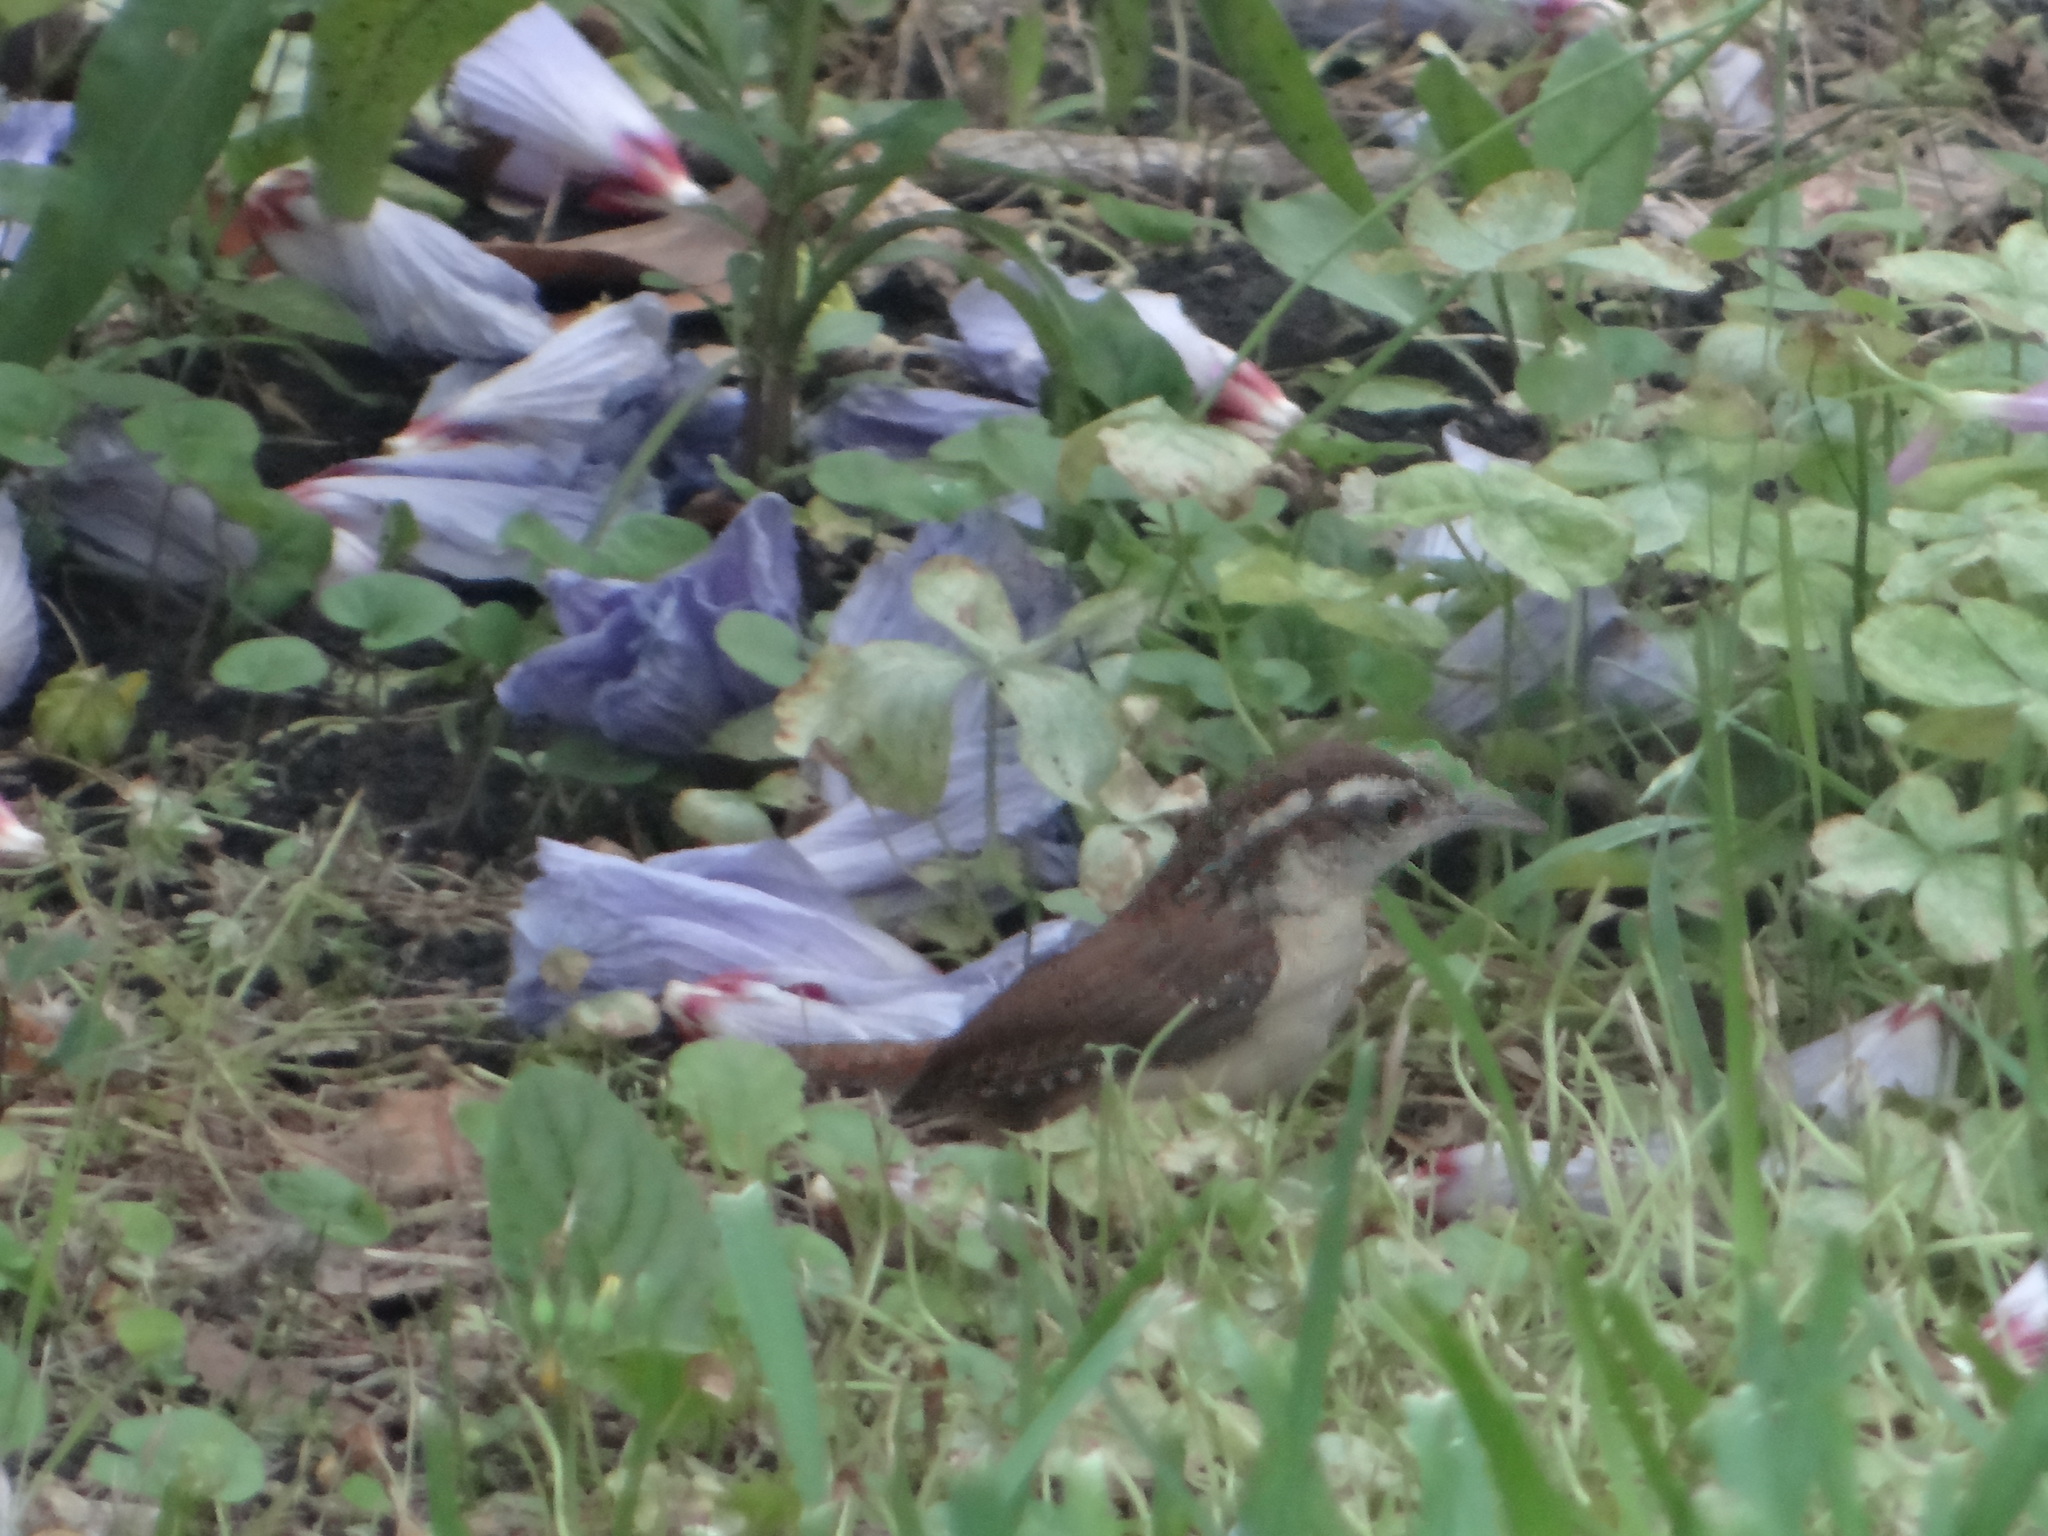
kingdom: Animalia
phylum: Chordata
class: Aves
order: Passeriformes
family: Troglodytidae
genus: Thryothorus
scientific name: Thryothorus ludovicianus
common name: Carolina wren
